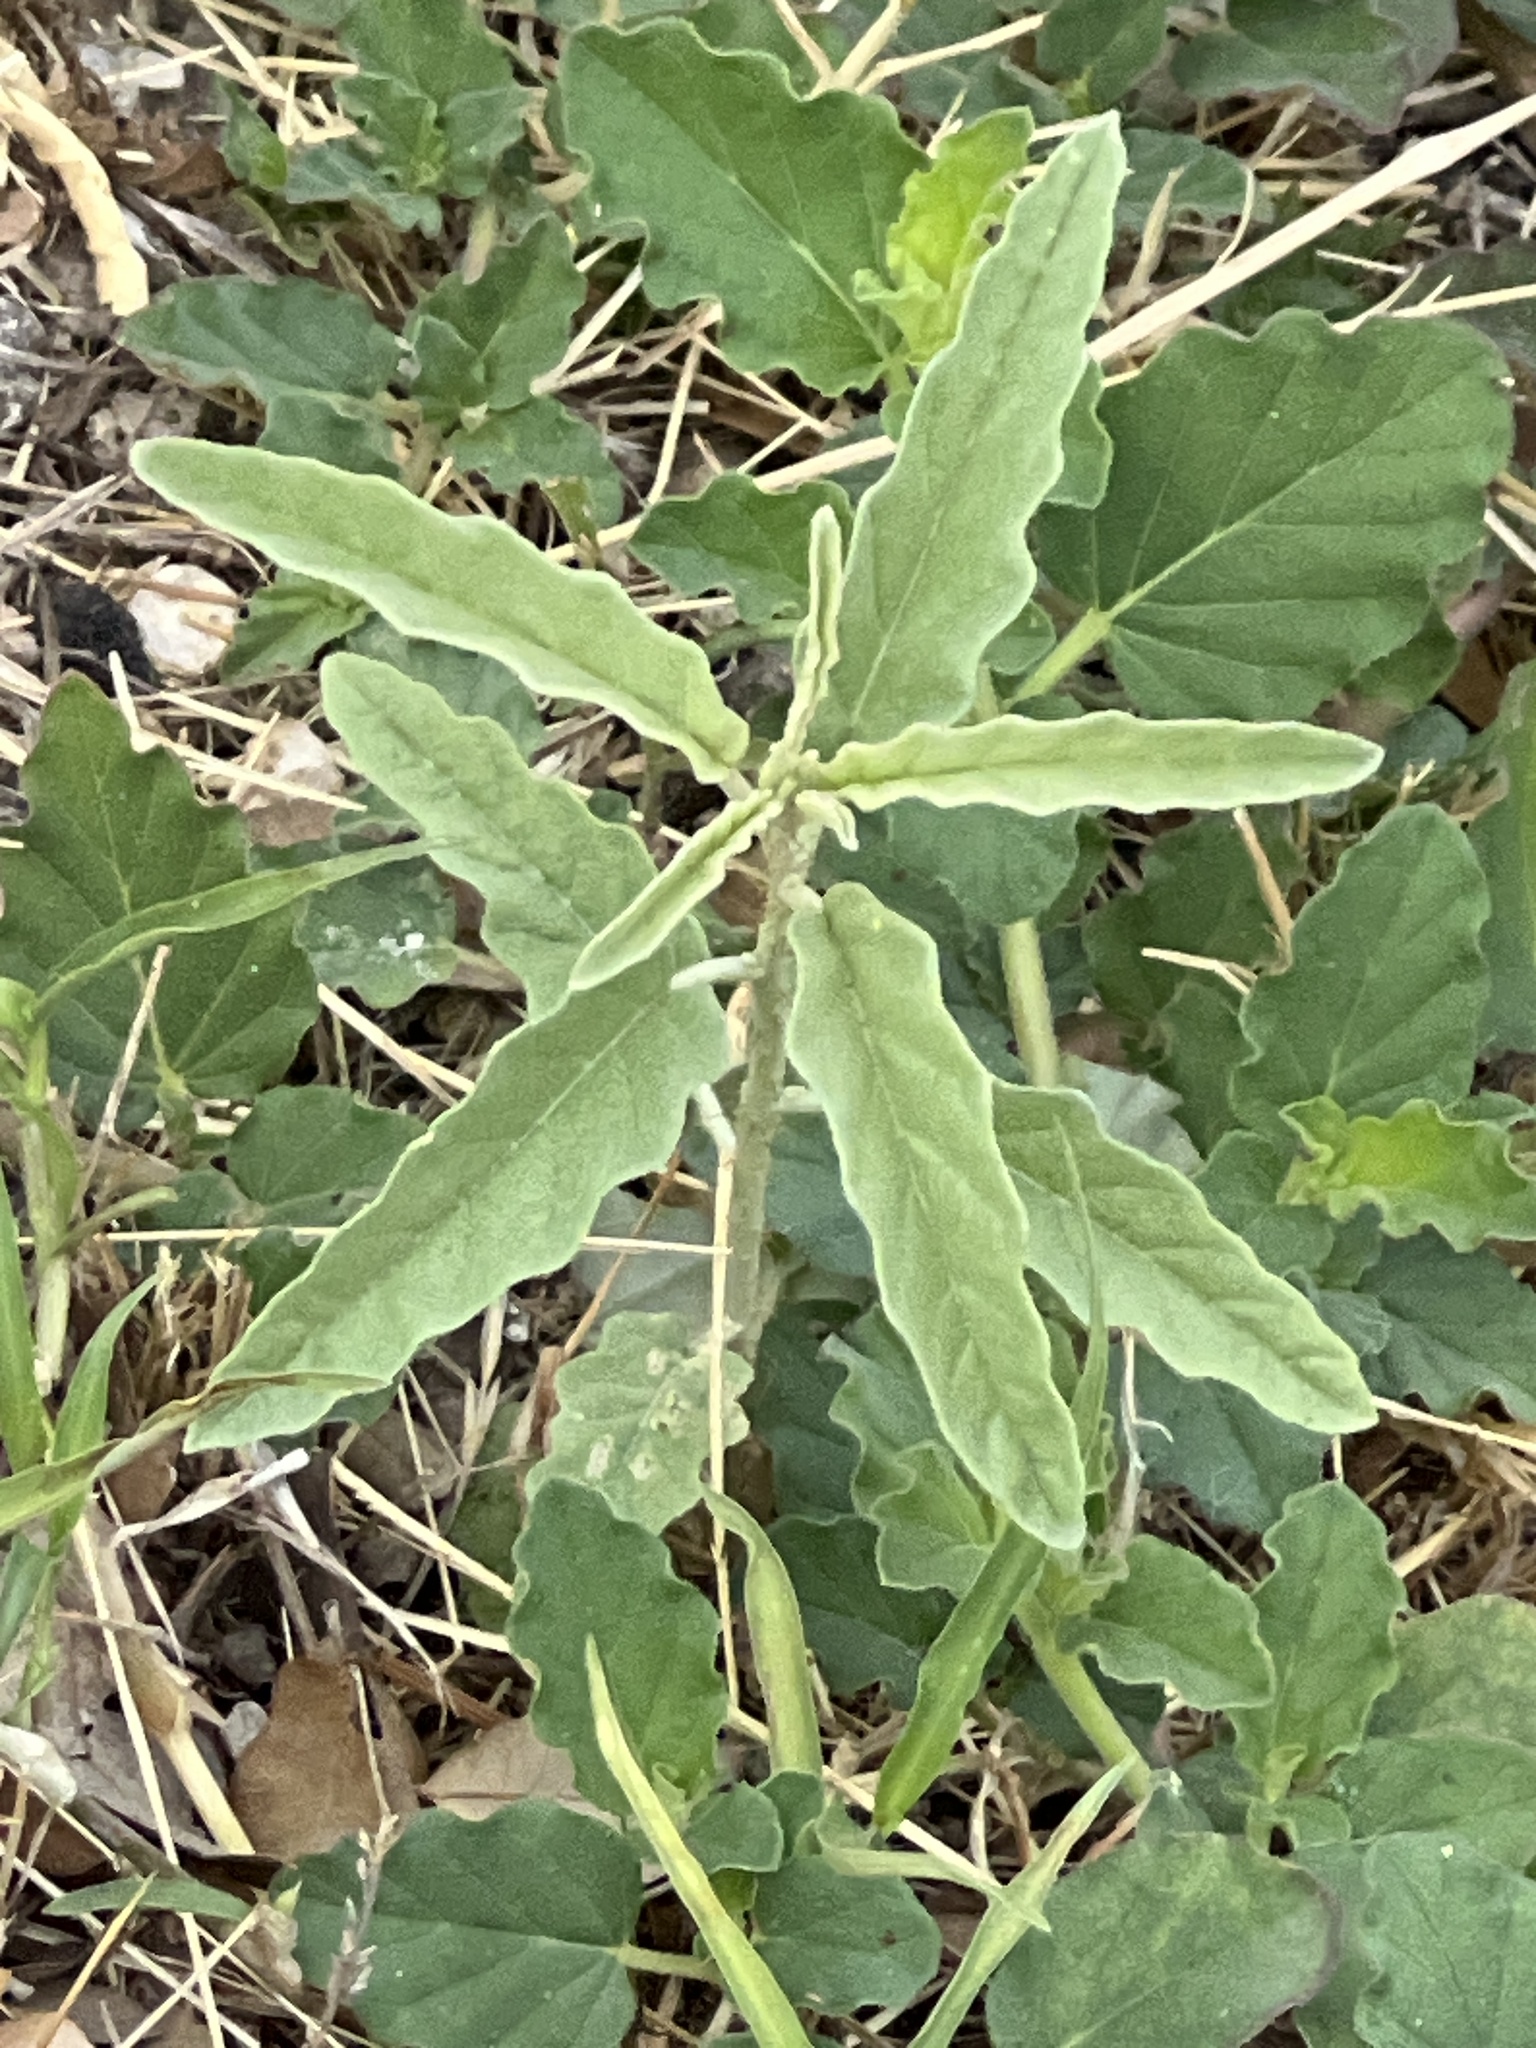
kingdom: Plantae
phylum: Tracheophyta
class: Magnoliopsida
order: Solanales
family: Solanaceae
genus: Solanum
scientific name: Solanum elaeagnifolium
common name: Silverleaf nightshade
